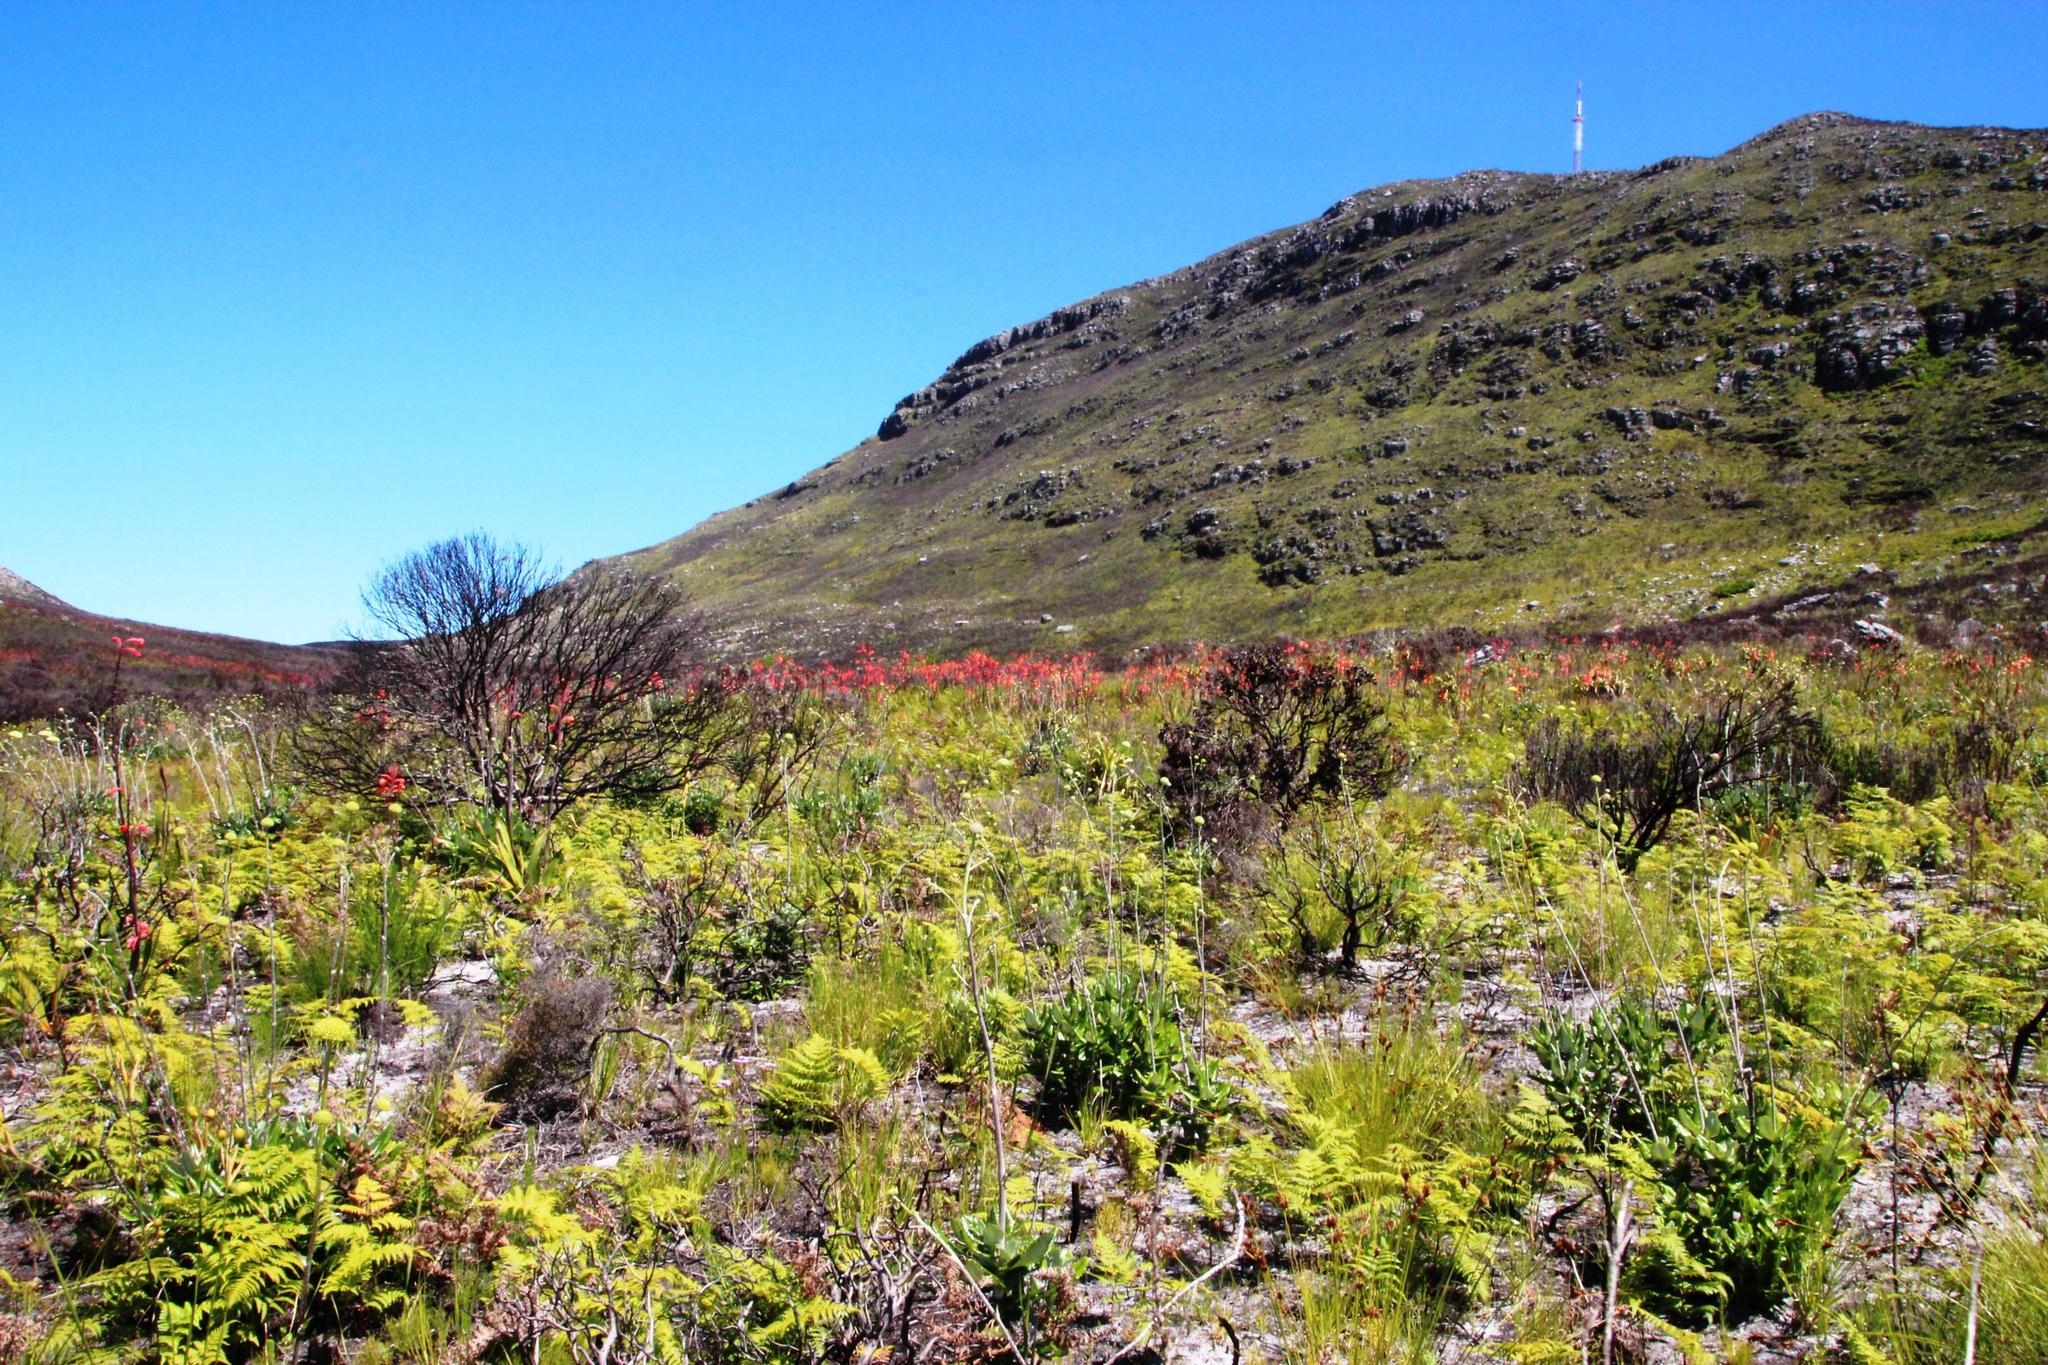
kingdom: Plantae
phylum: Tracheophyta
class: Liliopsida
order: Asparagales
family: Iridaceae
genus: Watsonia
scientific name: Watsonia tabularis
